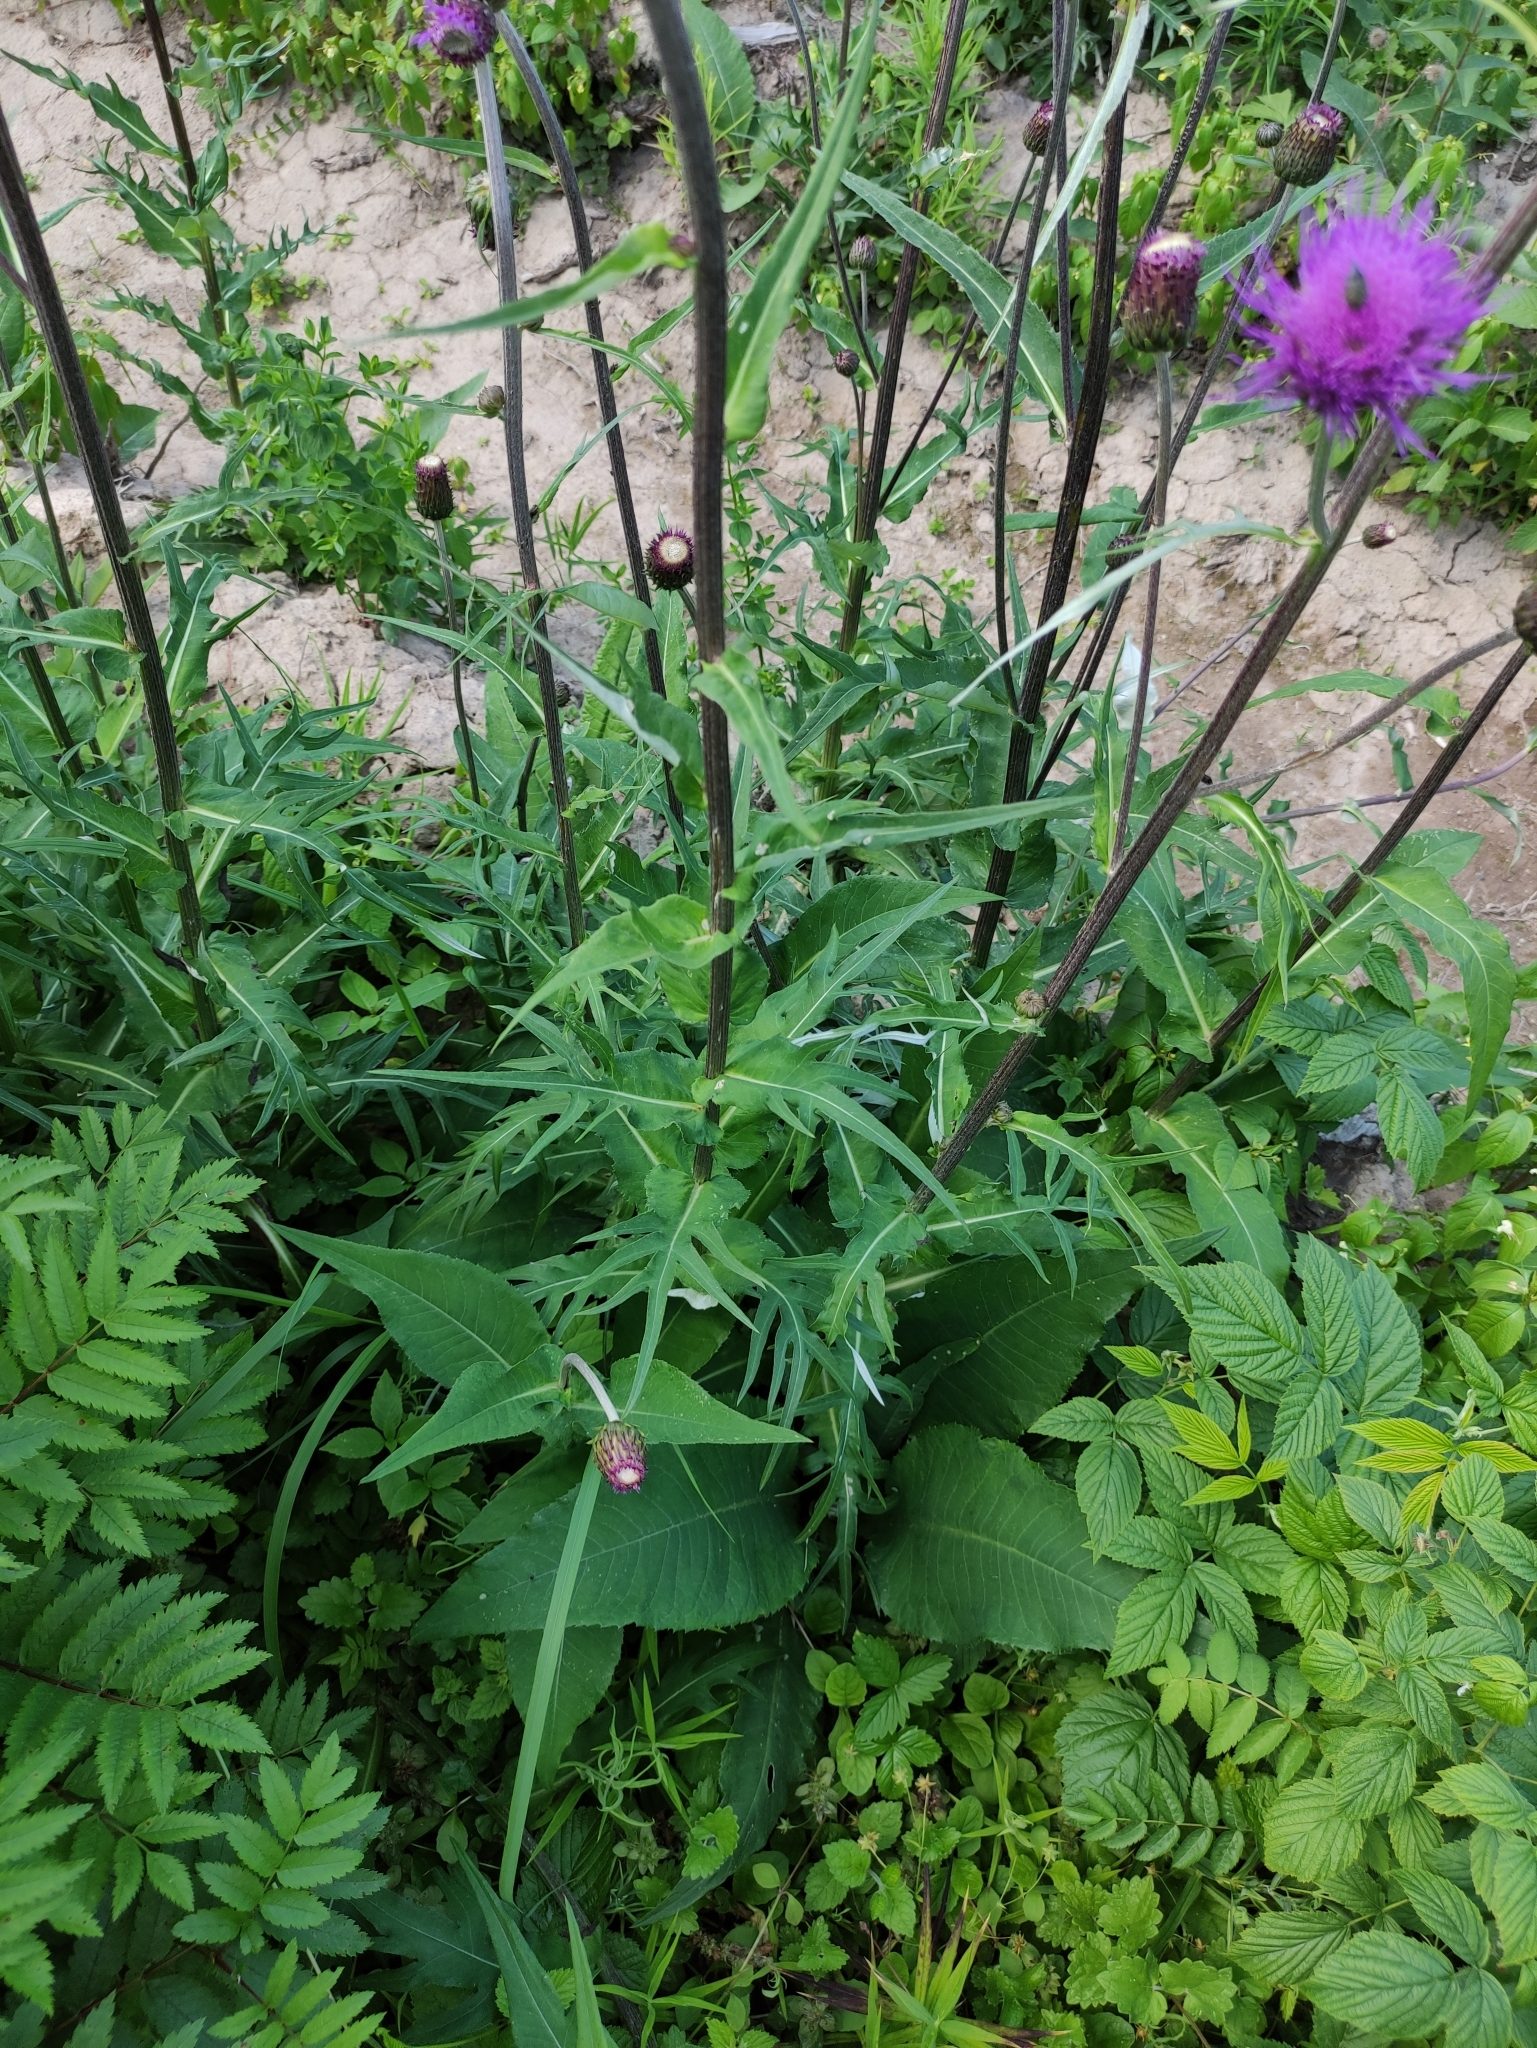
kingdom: Plantae
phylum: Tracheophyta
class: Magnoliopsida
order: Asterales
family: Asteraceae
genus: Cirsium
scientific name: Cirsium heterophyllum
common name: Melancholy thistle
